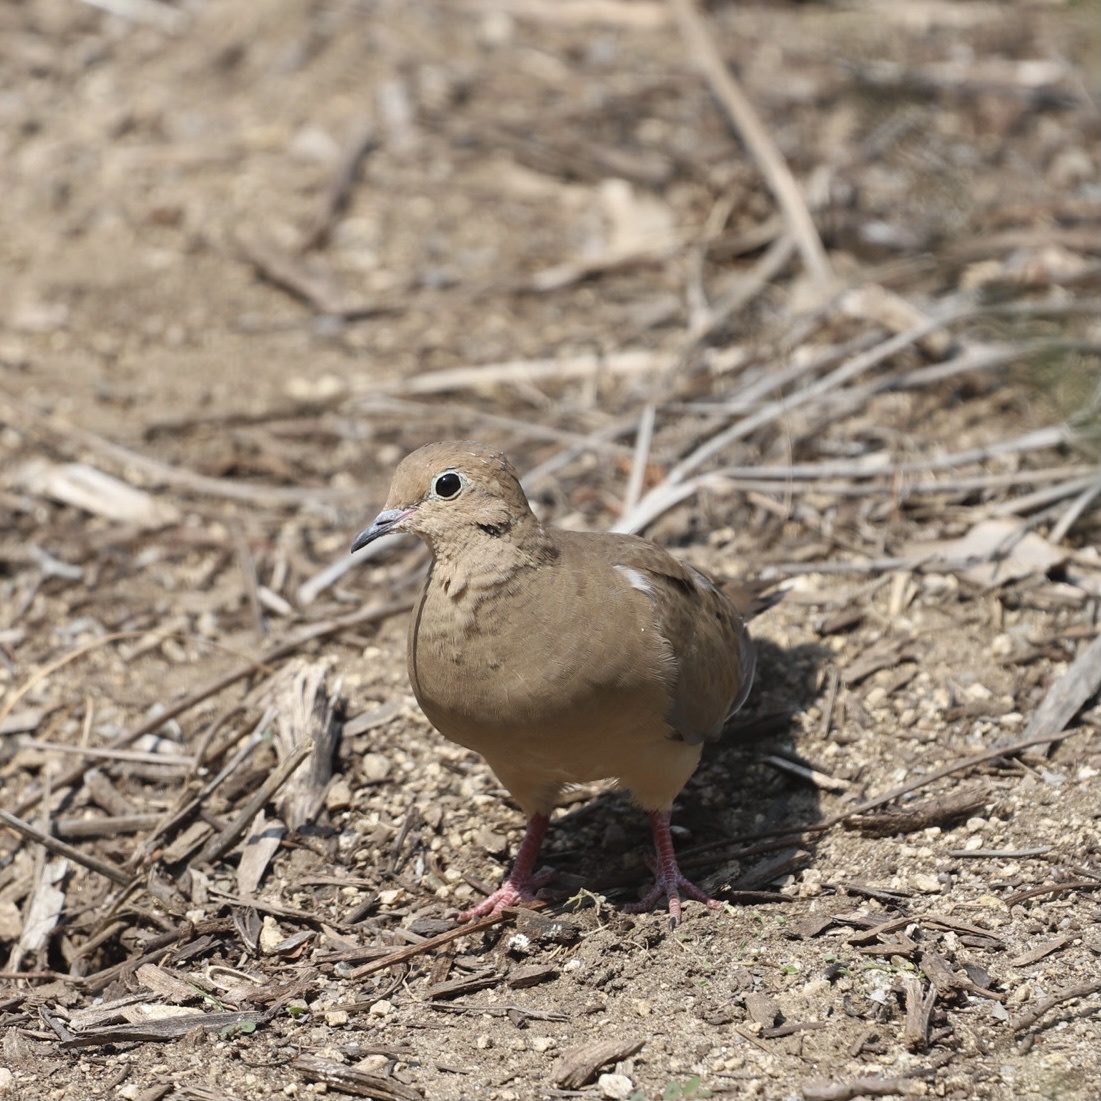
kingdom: Animalia
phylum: Chordata
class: Aves
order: Columbiformes
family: Columbidae
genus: Zenaida
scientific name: Zenaida macroura
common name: Mourning dove
